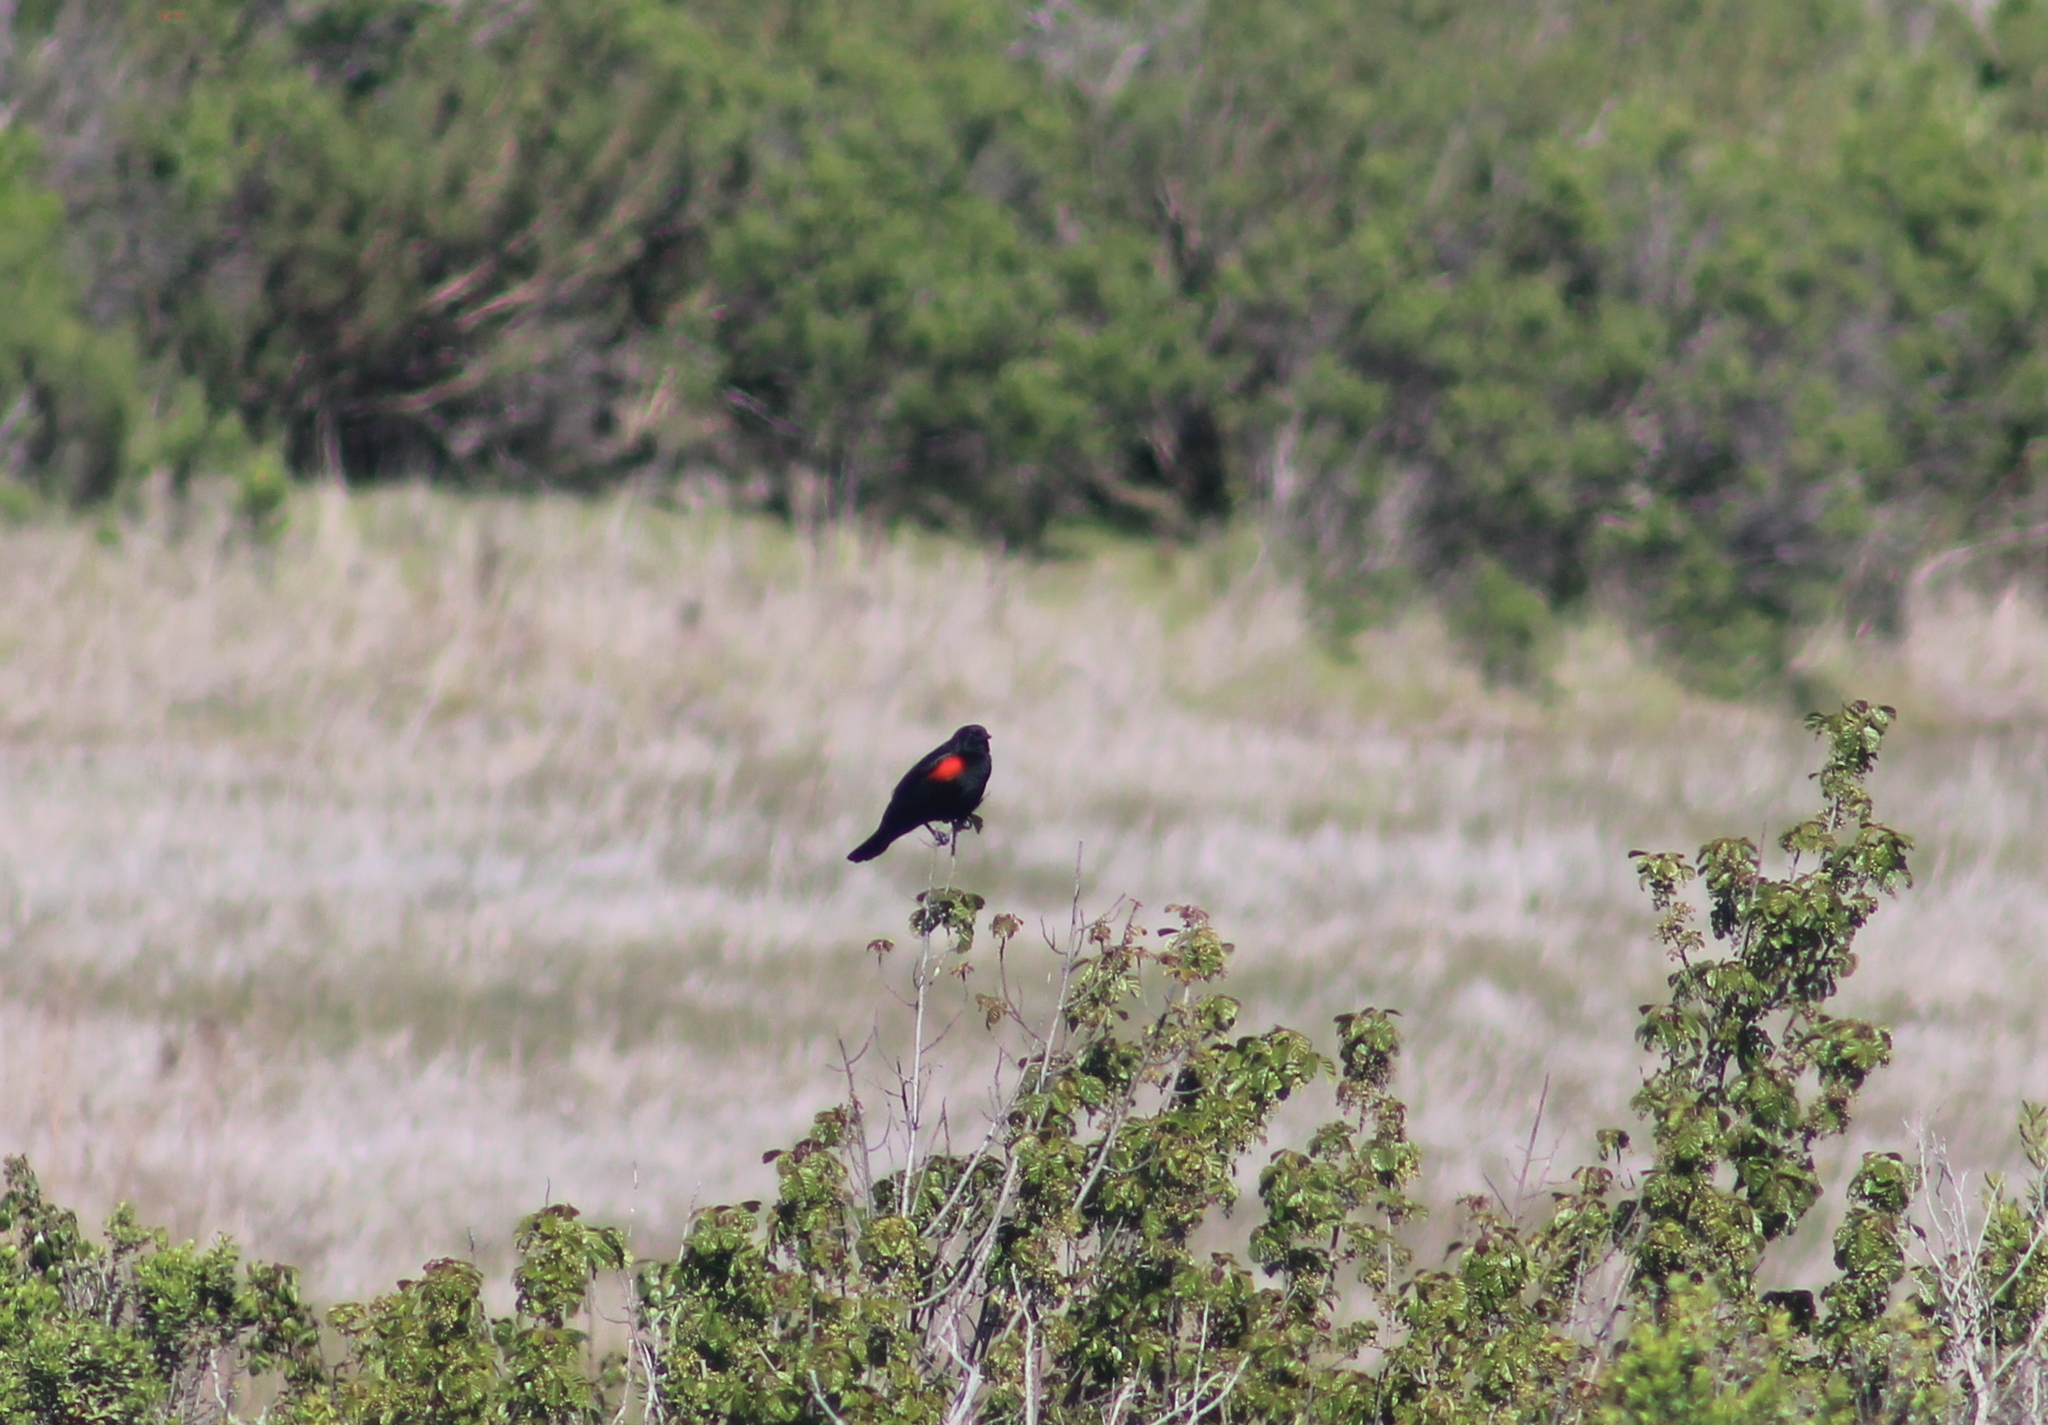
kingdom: Animalia
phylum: Chordata
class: Aves
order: Passeriformes
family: Icteridae
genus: Agelaius
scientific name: Agelaius phoeniceus
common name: Red-winged blackbird
